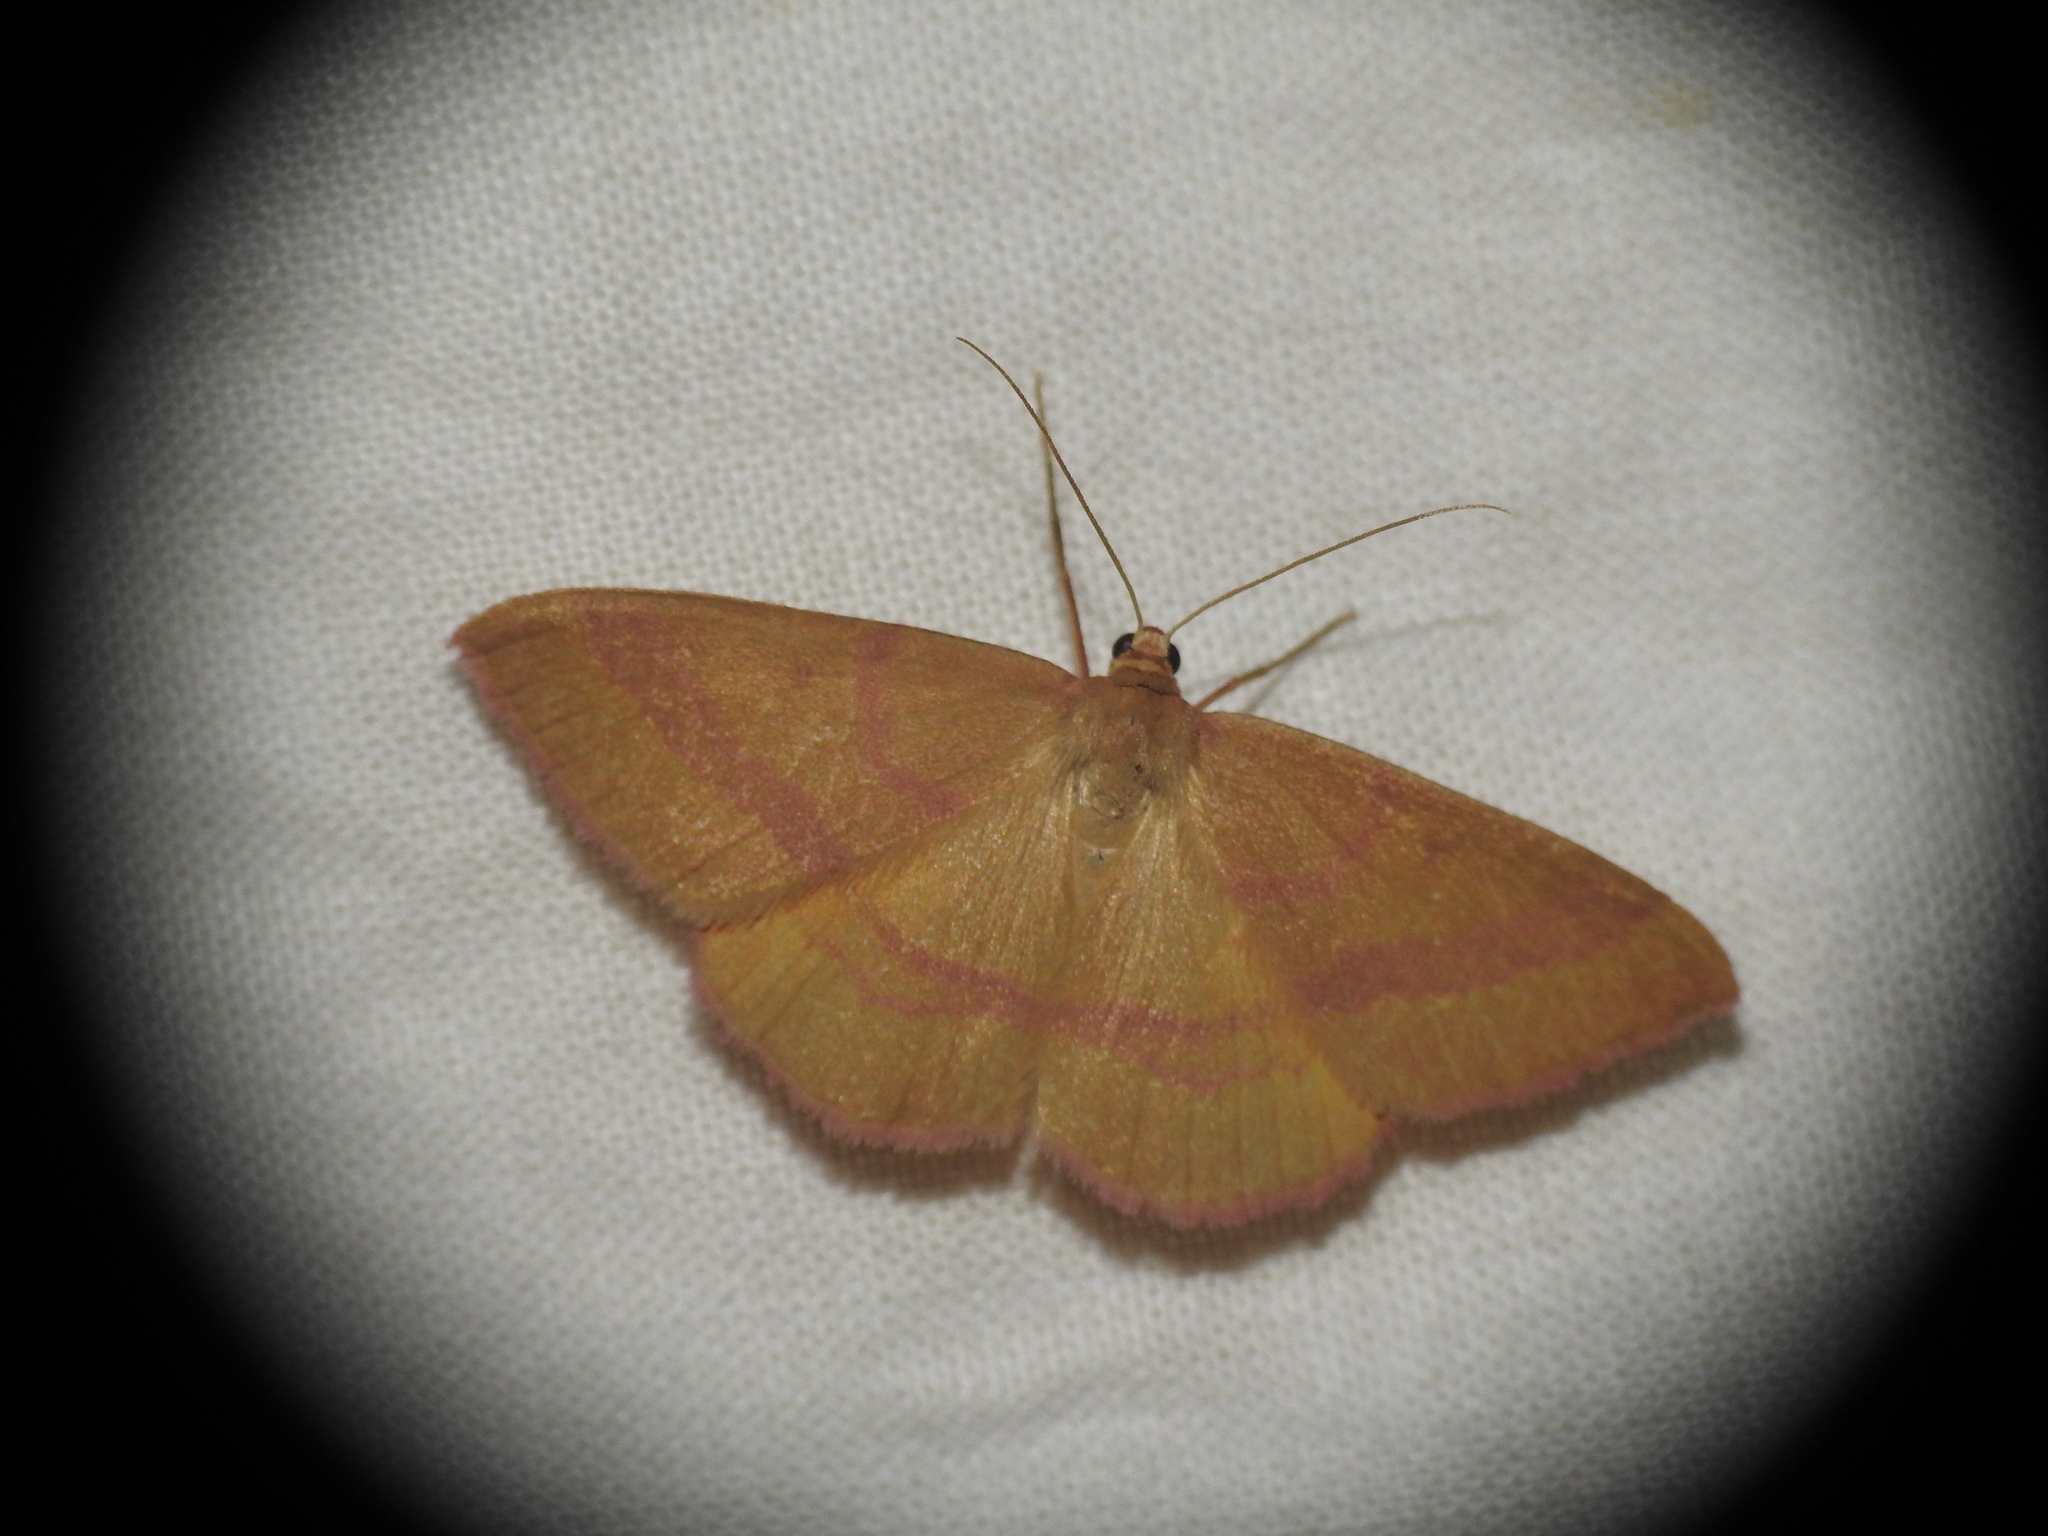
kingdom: Animalia
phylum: Arthropoda
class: Insecta
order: Lepidoptera
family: Geometridae
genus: Rhodostrophia
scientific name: Rhodostrophia calabra
